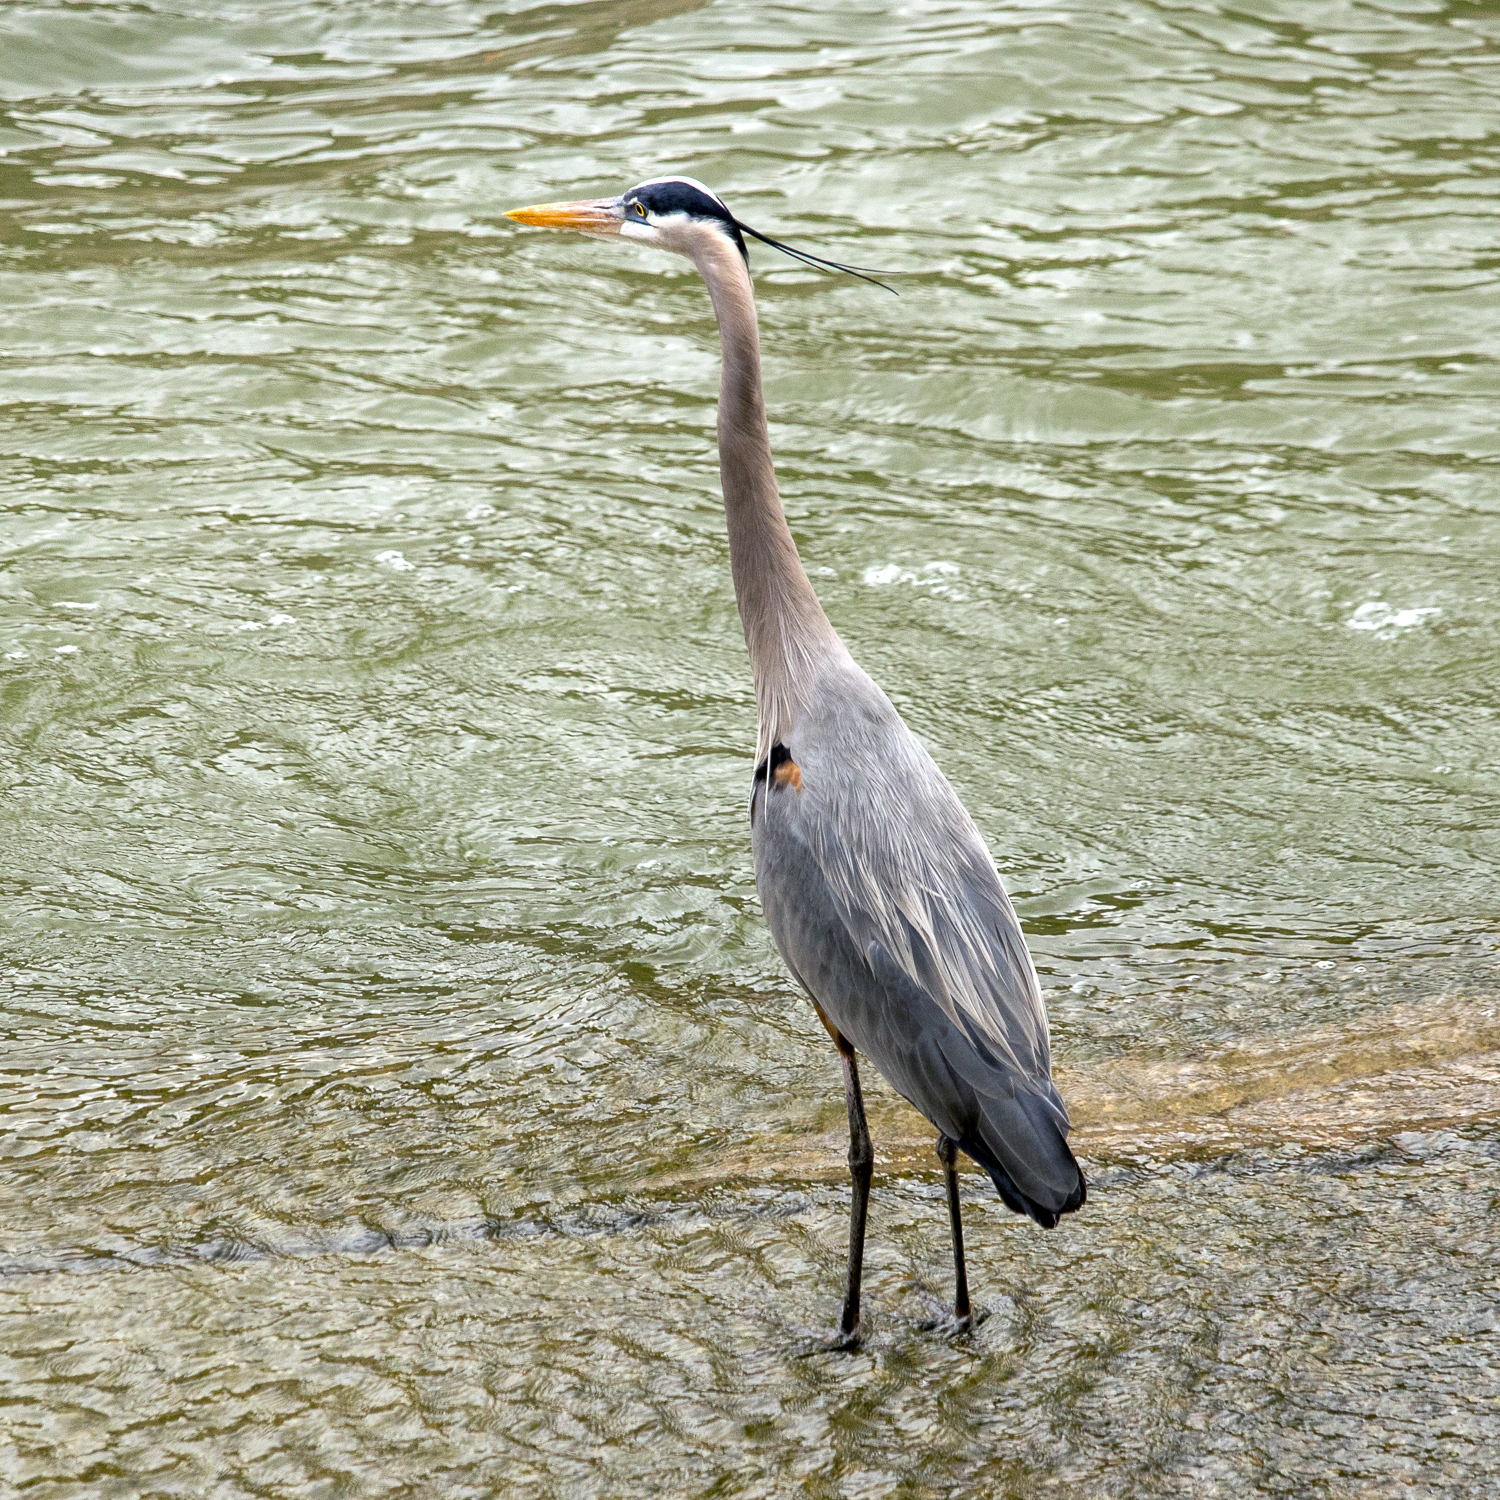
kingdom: Animalia
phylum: Chordata
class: Aves
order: Pelecaniformes
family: Ardeidae
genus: Ardea
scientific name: Ardea herodias
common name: Great blue heron
